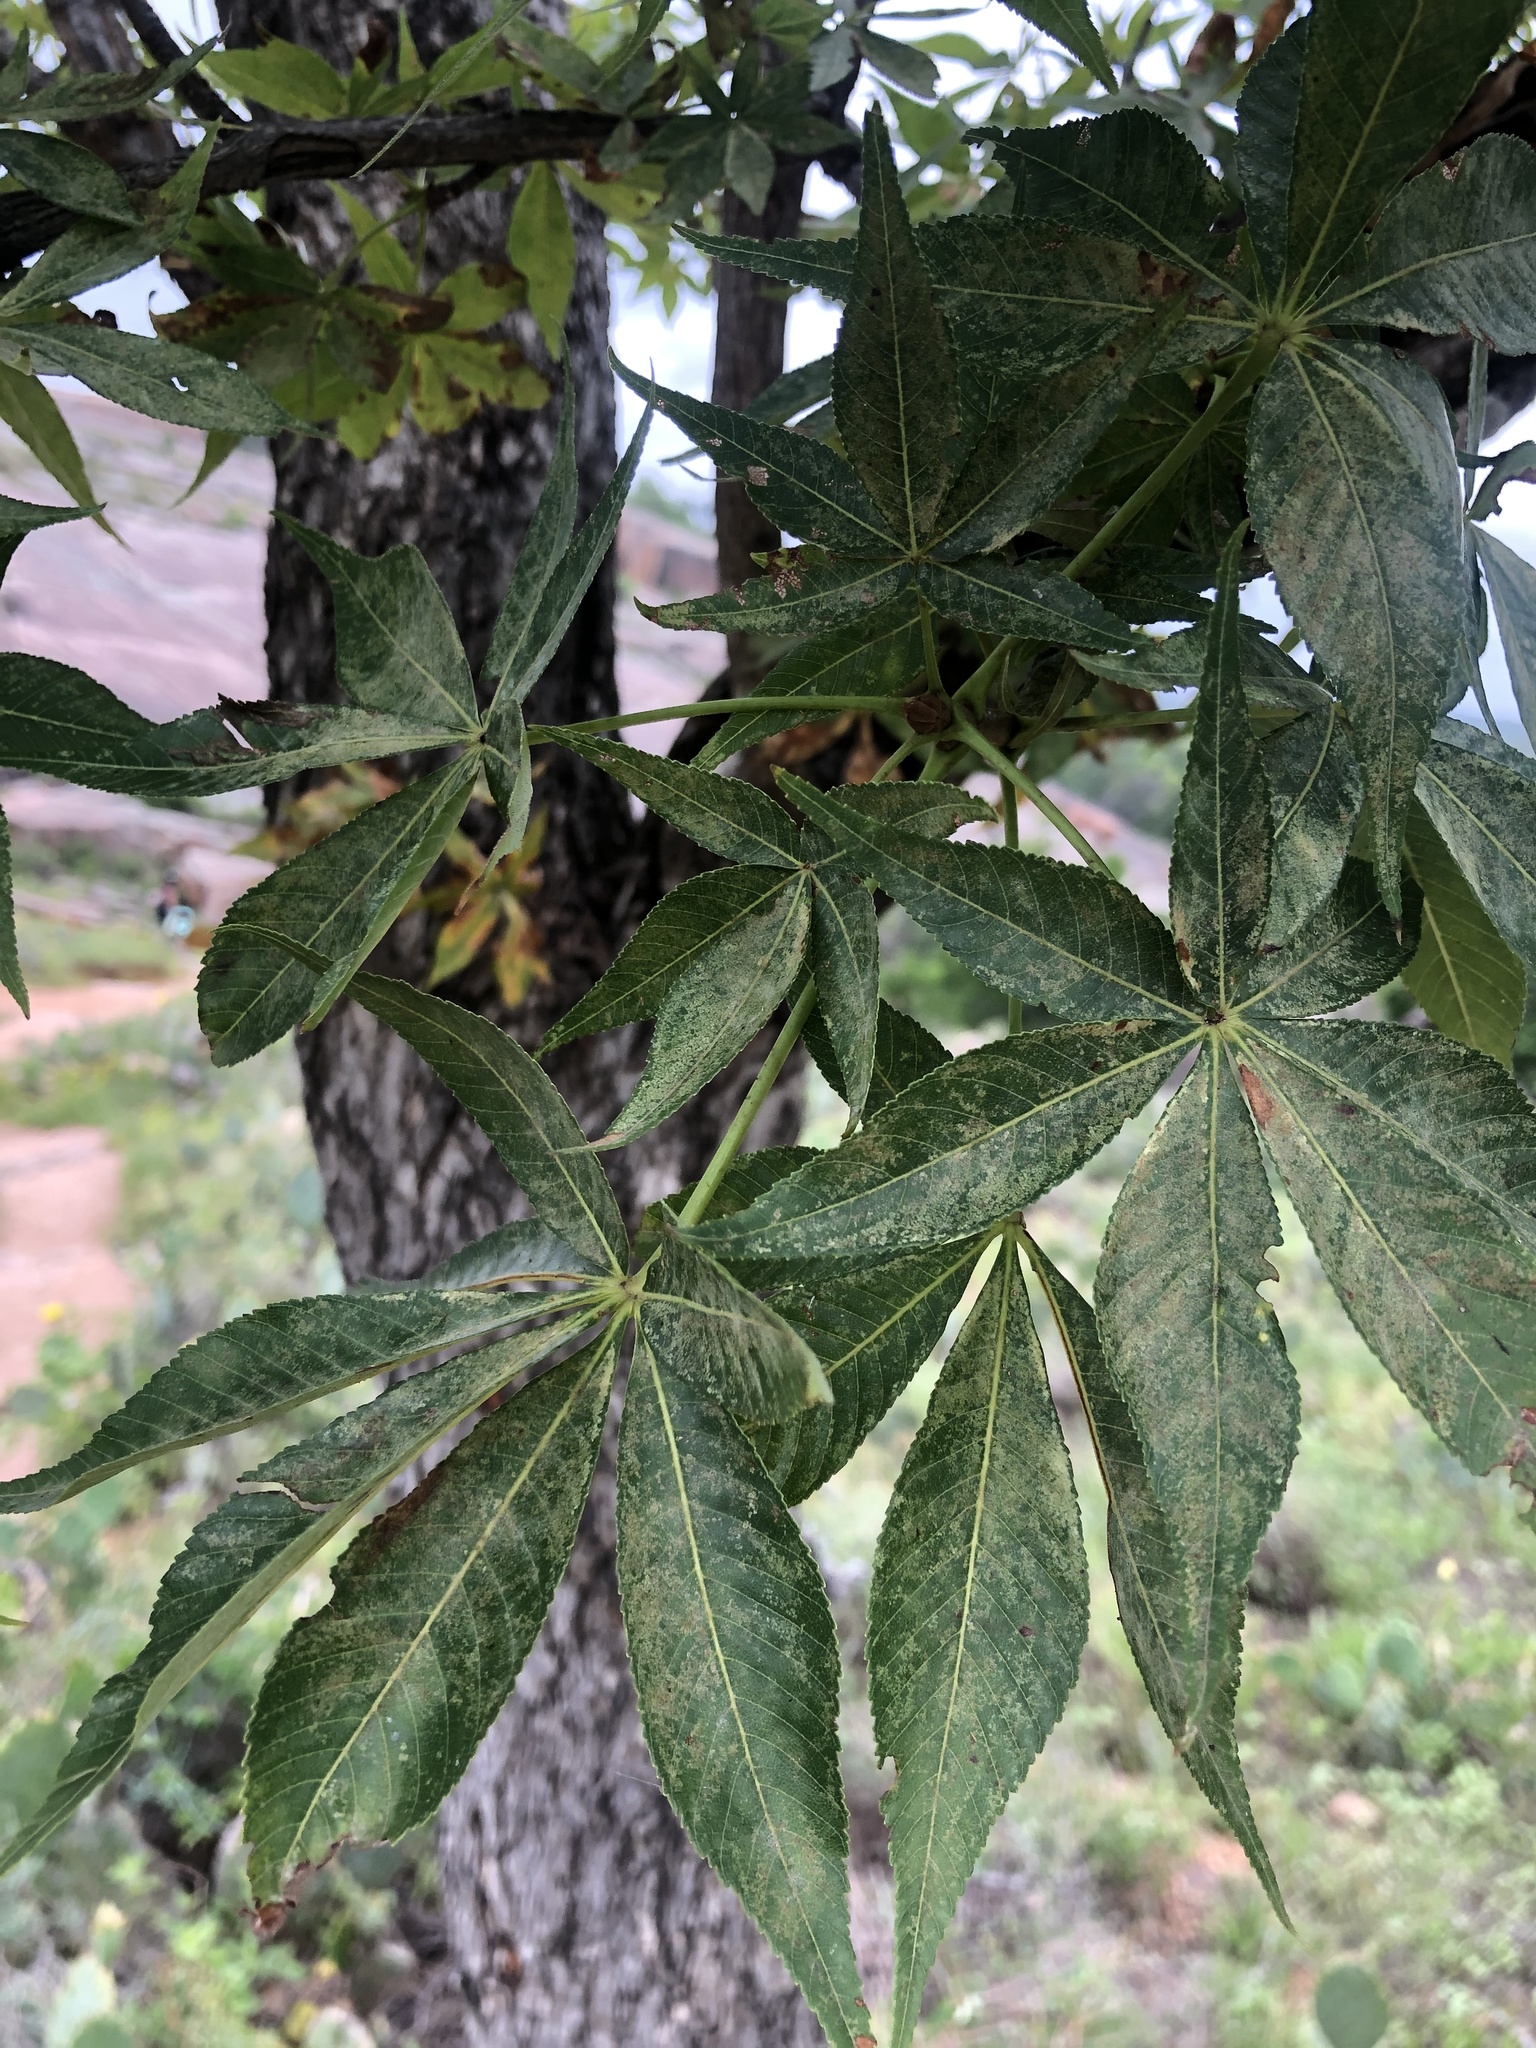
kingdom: Plantae
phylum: Tracheophyta
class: Magnoliopsida
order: Sapindales
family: Sapindaceae
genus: Aesculus
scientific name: Aesculus glabra
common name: Ohio buckeye
